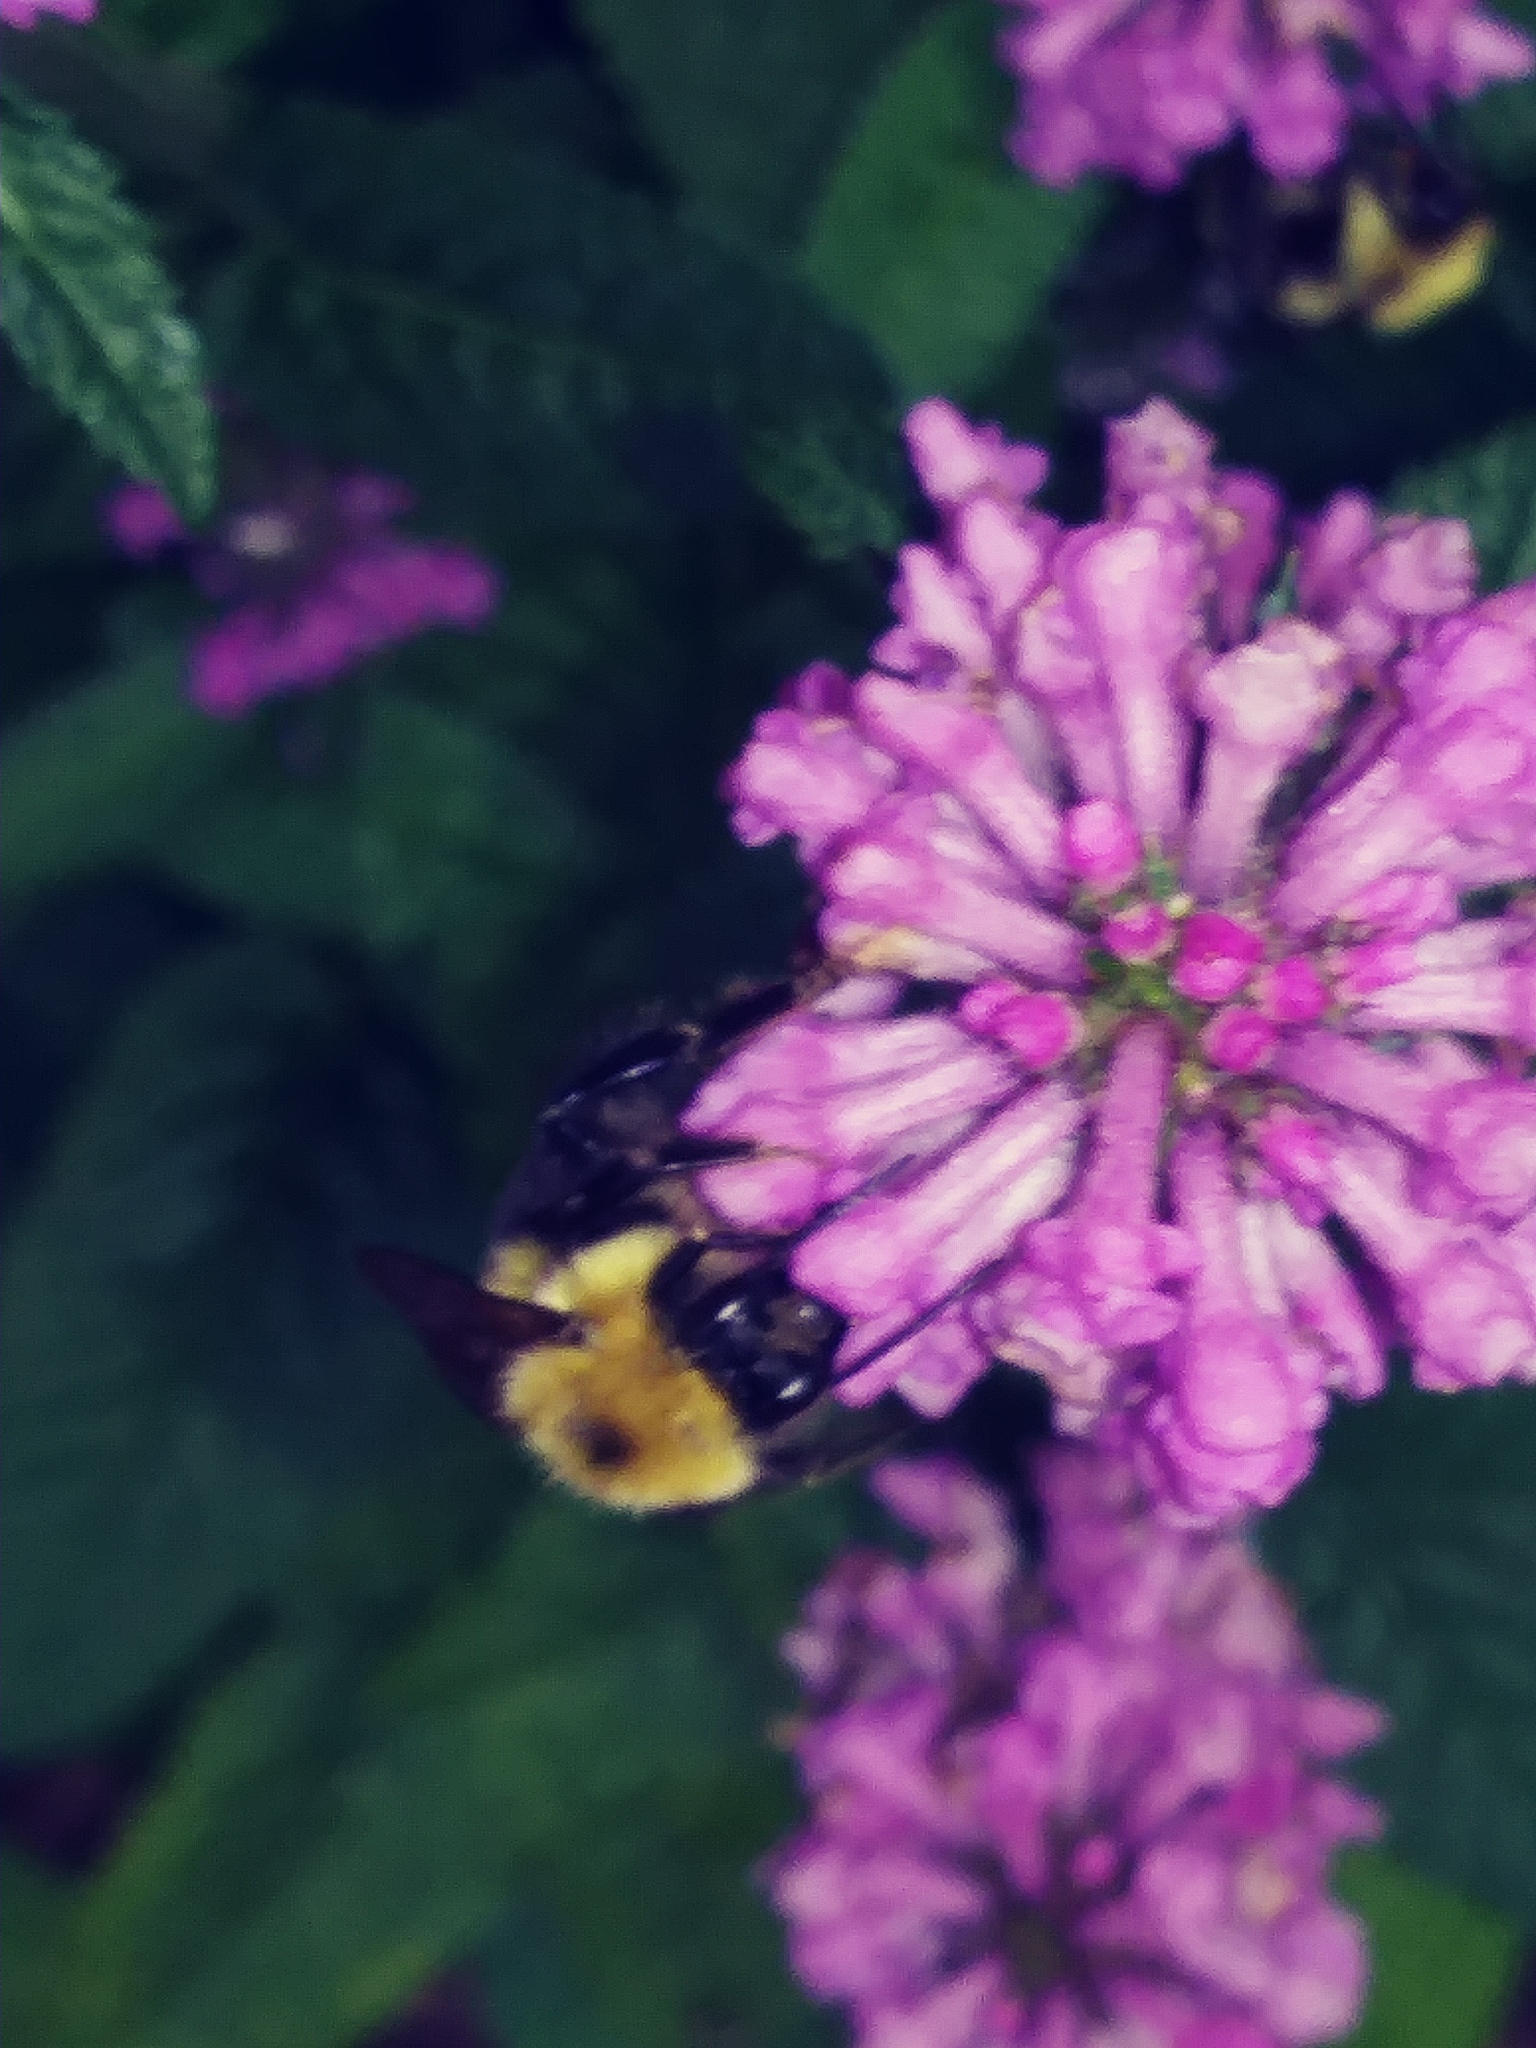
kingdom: Animalia
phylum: Arthropoda
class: Insecta
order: Hymenoptera
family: Apidae
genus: Bombus
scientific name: Bombus bimaculatus
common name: Two-spotted bumble bee
